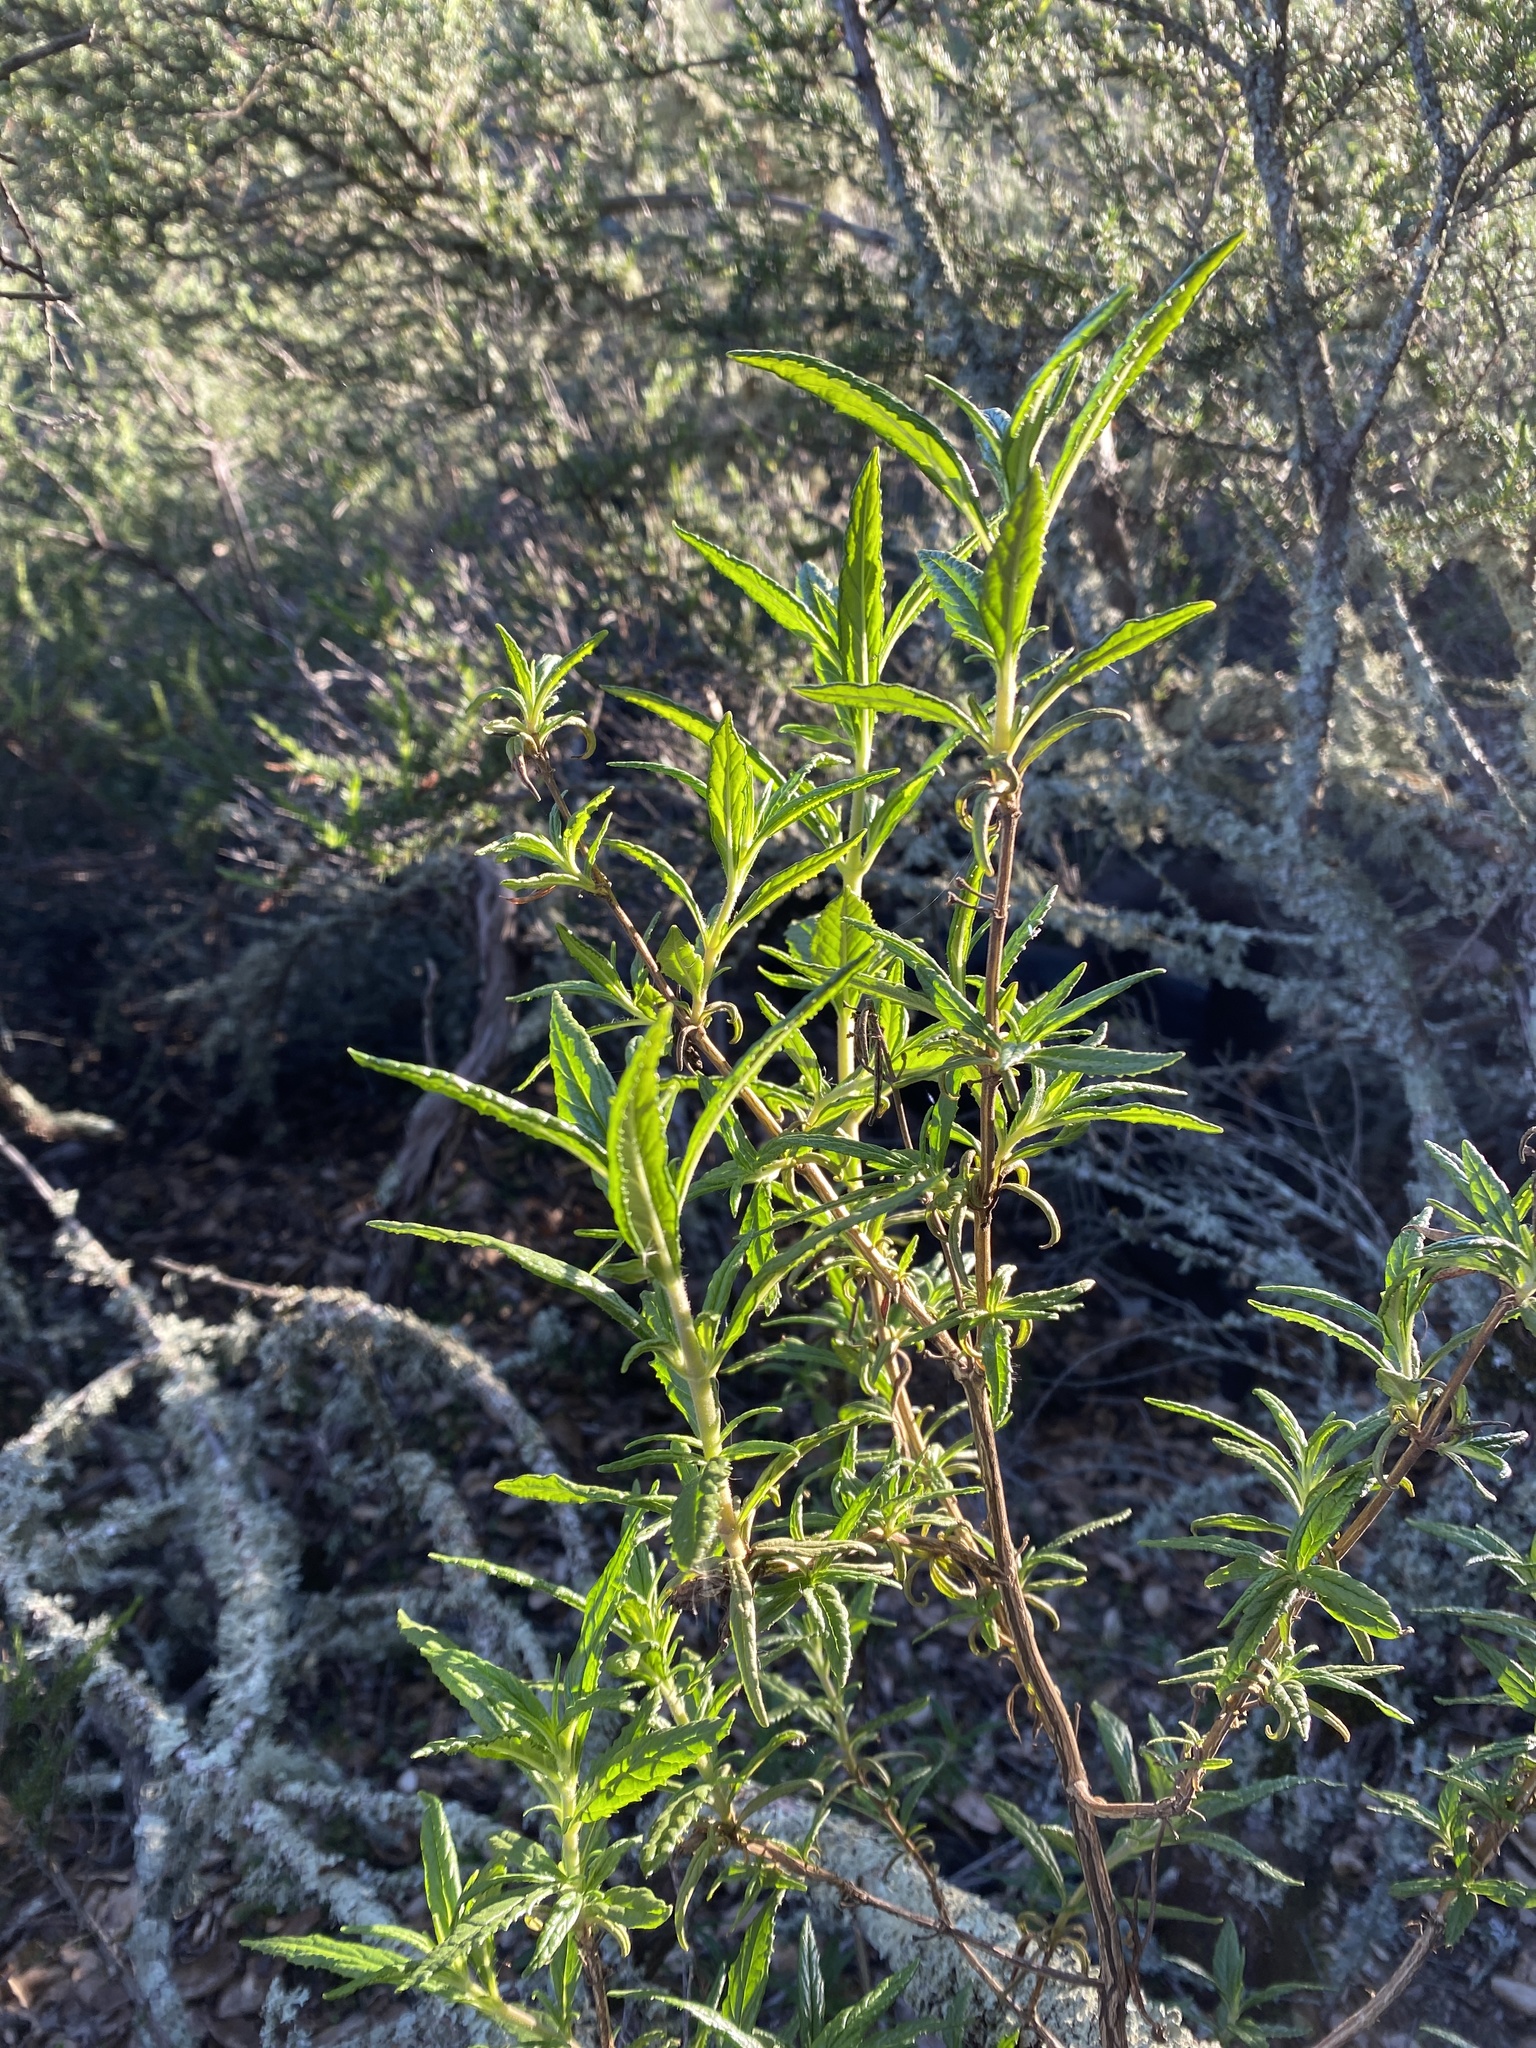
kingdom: Plantae
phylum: Tracheophyta
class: Magnoliopsida
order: Lamiales
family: Phrymaceae
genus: Diplacus
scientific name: Diplacus aurantiacus
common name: Bush monkey-flower
